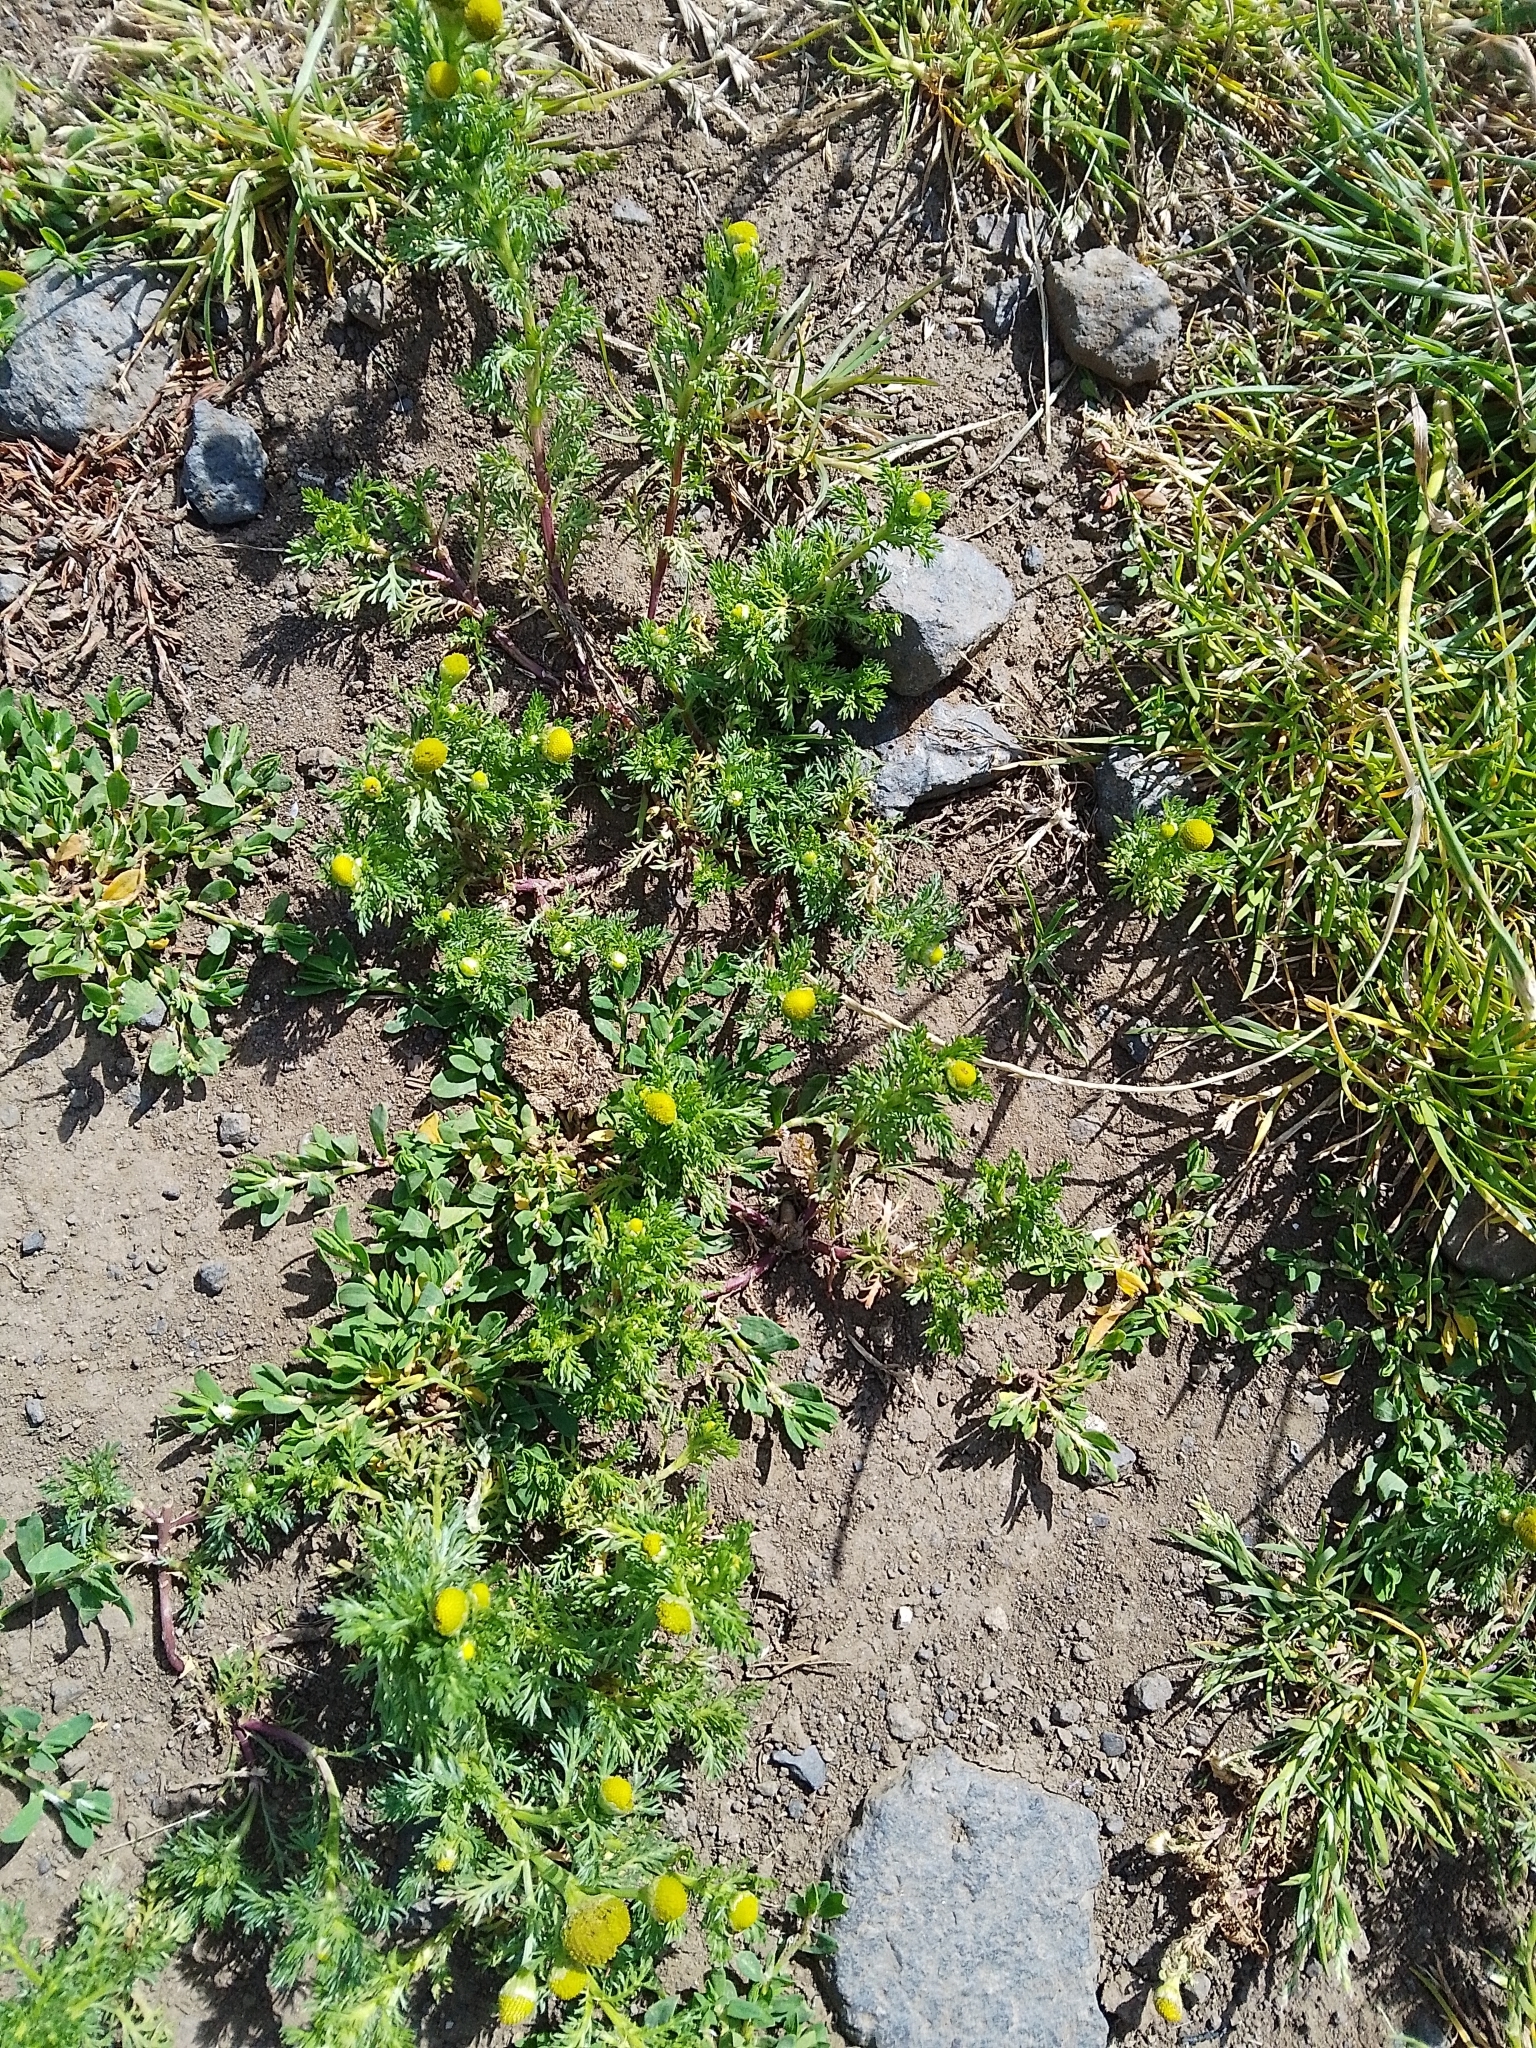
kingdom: Plantae
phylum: Tracheophyta
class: Magnoliopsida
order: Asterales
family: Asteraceae
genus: Matricaria
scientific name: Matricaria discoidea
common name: Disc mayweed
